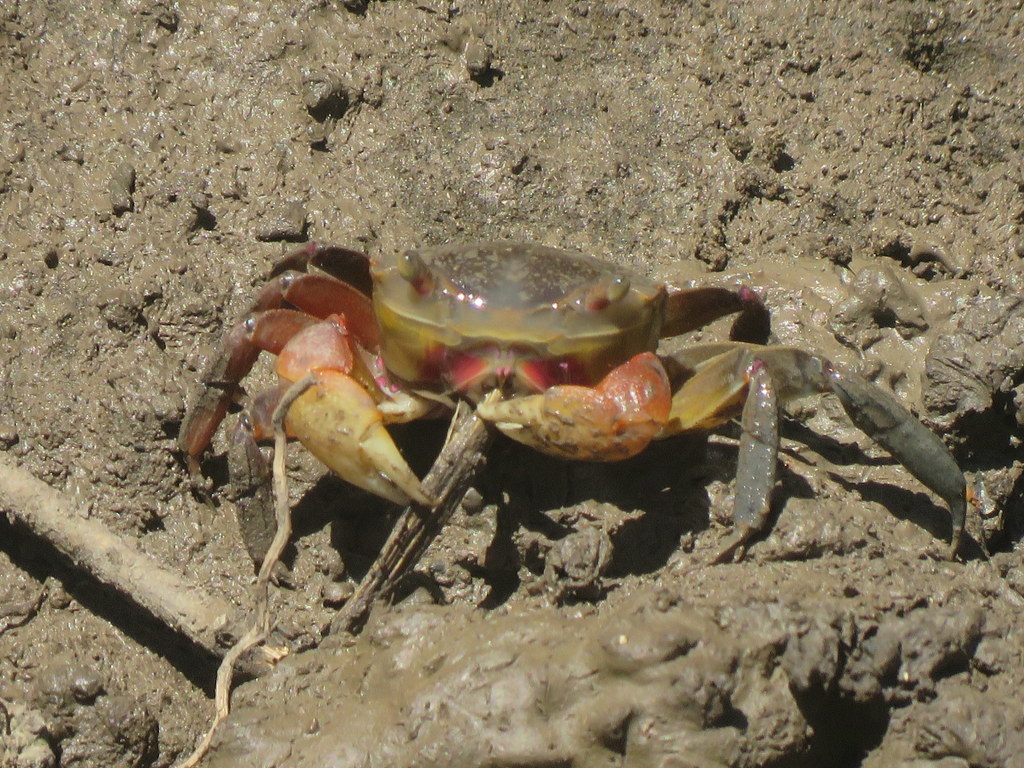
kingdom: Animalia
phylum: Arthropoda
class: Malacostraca
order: Decapoda
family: Varunidae
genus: Neohelice
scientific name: Neohelice granulata
